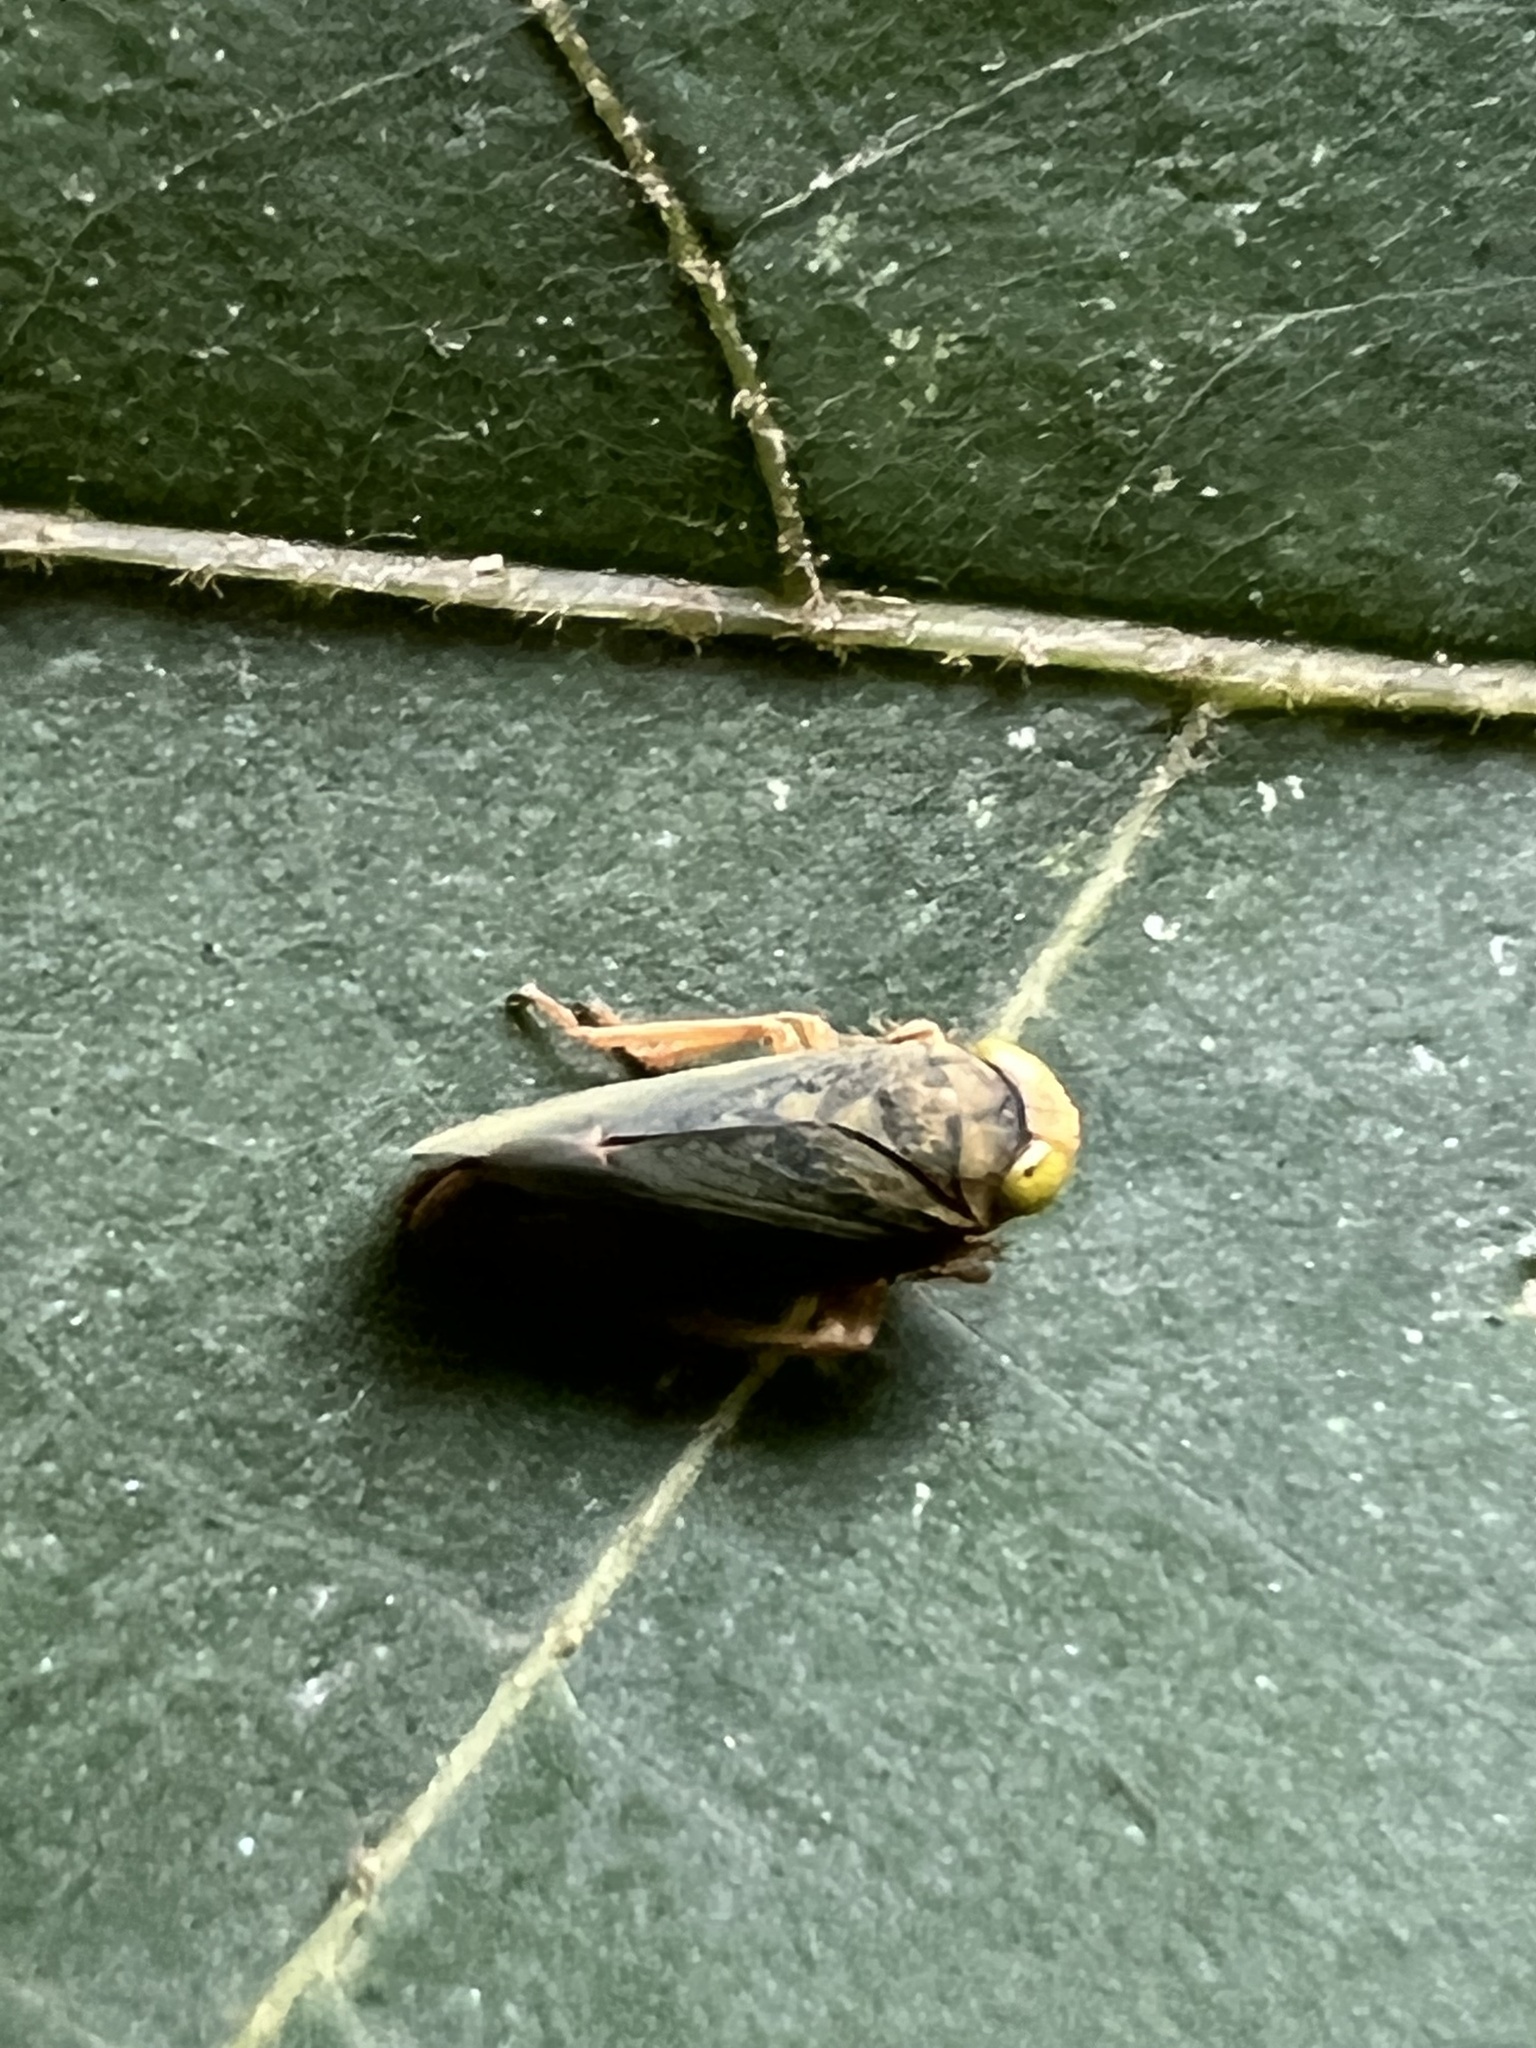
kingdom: Animalia
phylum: Arthropoda
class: Insecta
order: Hemiptera
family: Cicadellidae
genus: Jikradia
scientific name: Jikradia olitoria
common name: Coppery leafhopper
